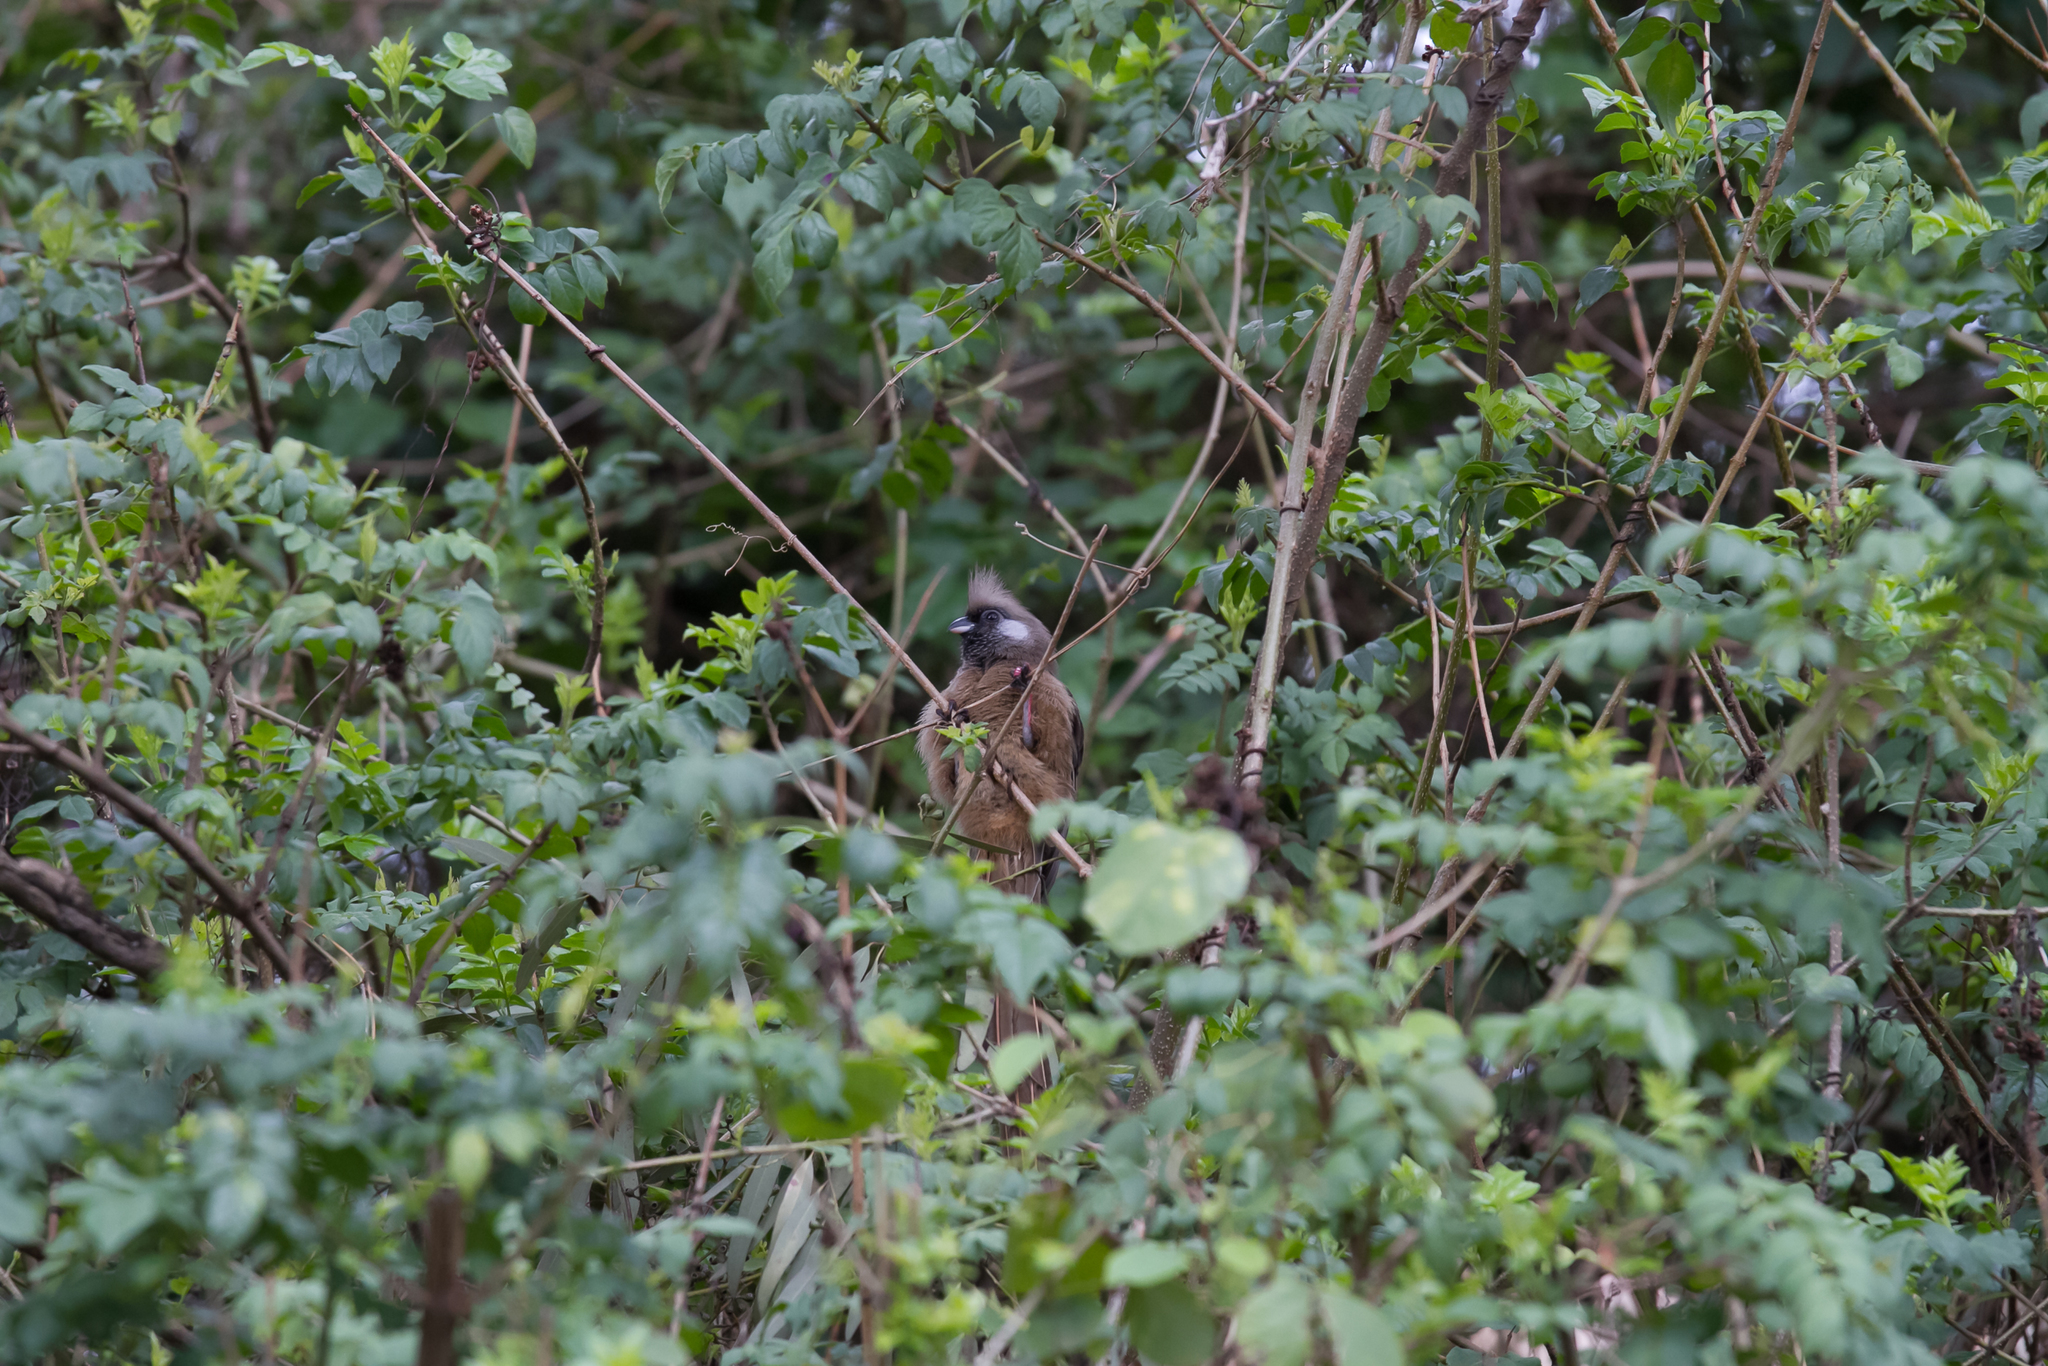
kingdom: Animalia
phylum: Chordata
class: Aves
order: Coliiformes
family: Coliidae
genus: Colius
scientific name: Colius striatus
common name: Speckled mousebird
